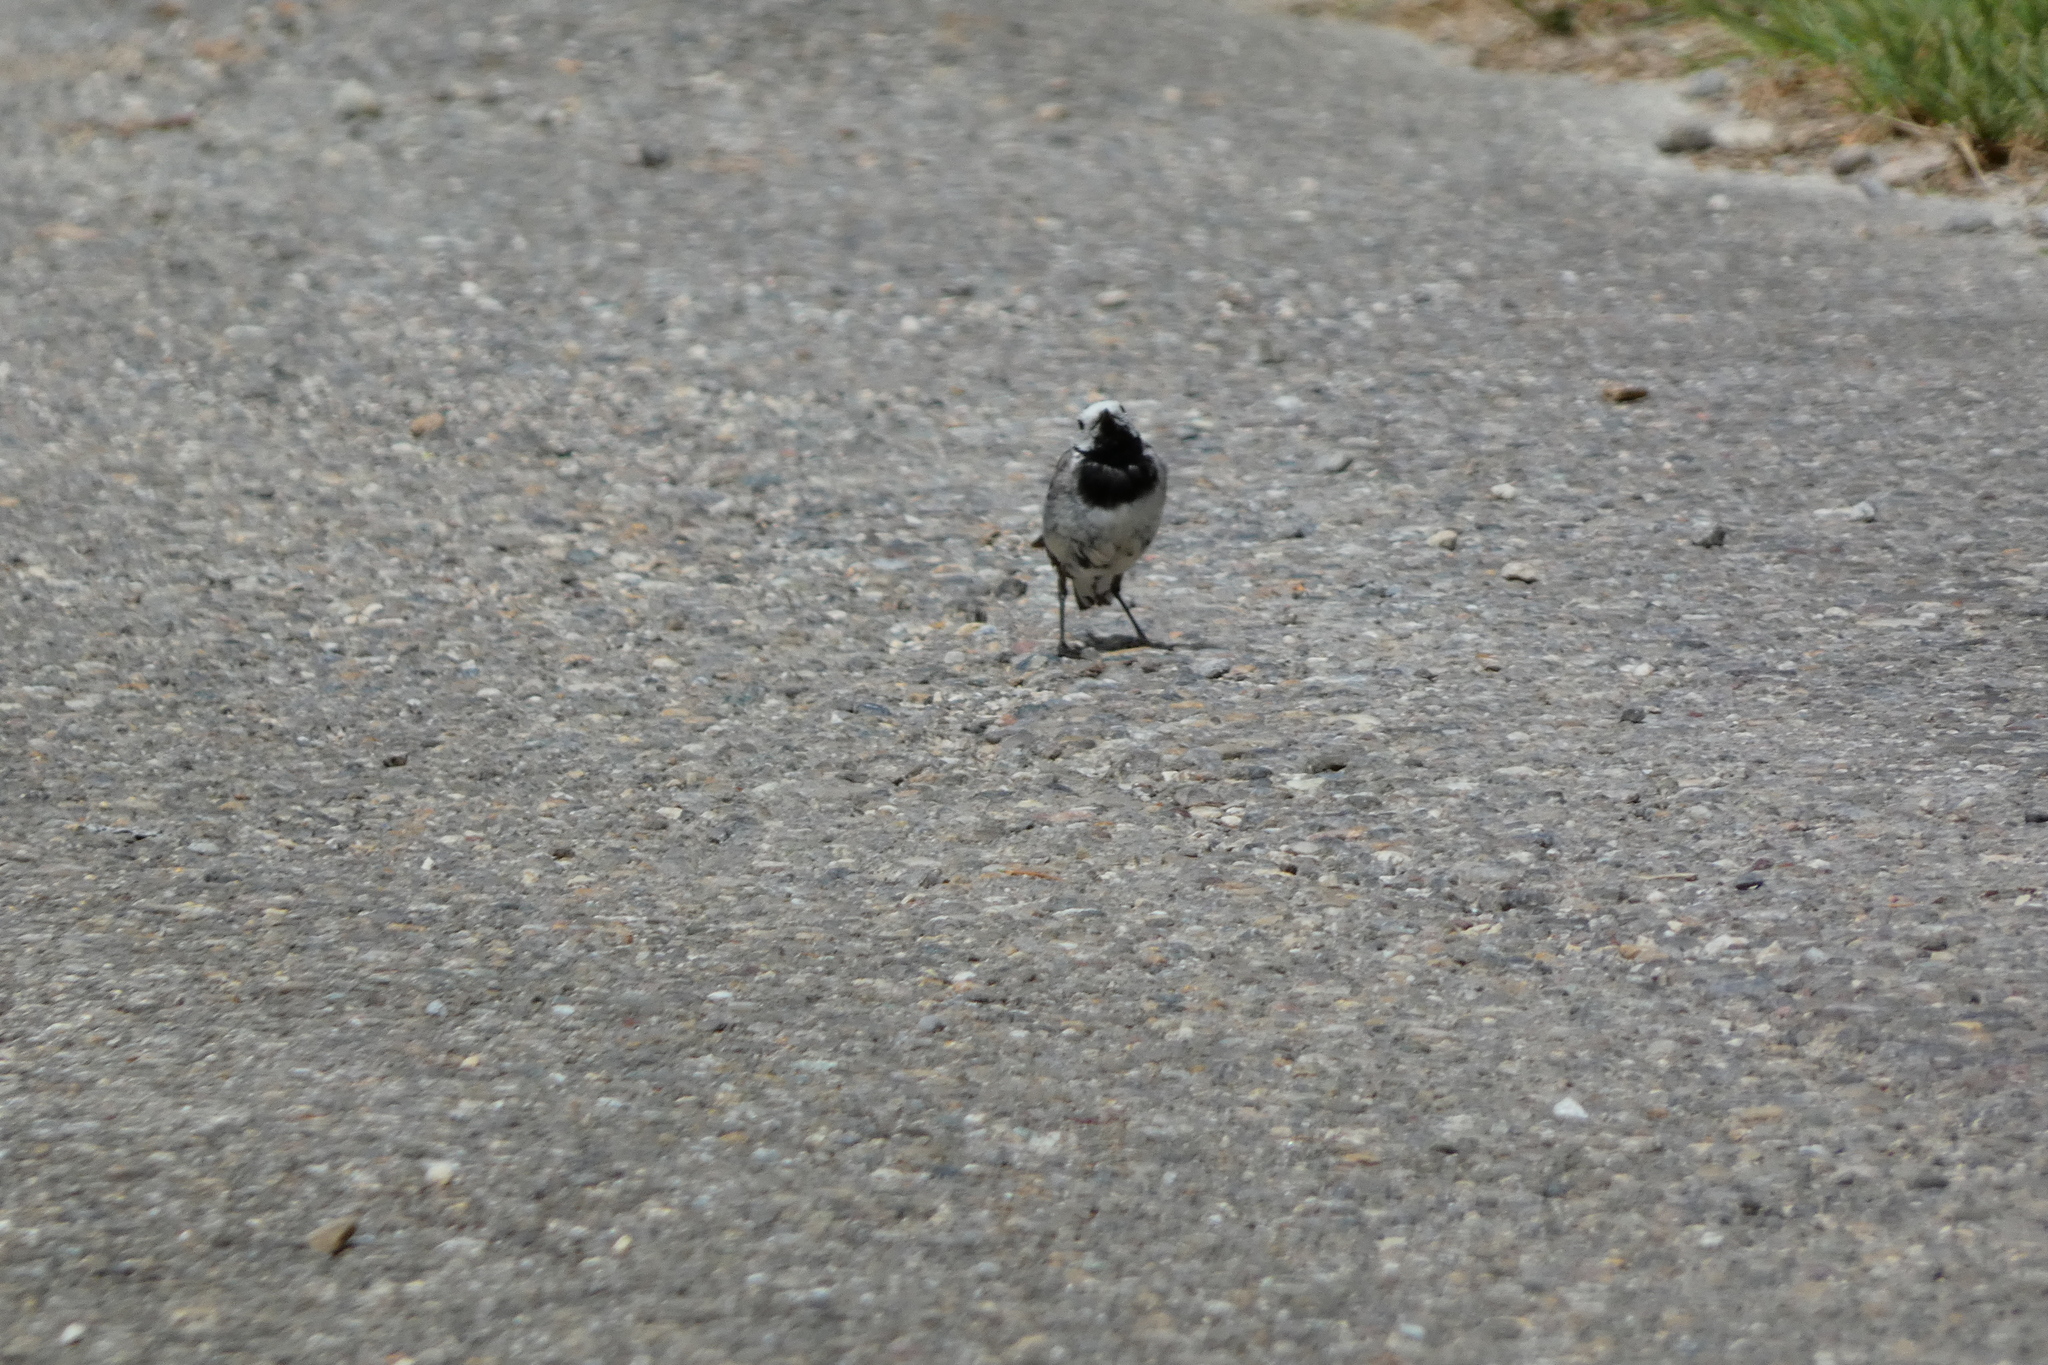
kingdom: Animalia
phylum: Chordata
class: Aves
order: Passeriformes
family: Motacillidae
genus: Motacilla
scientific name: Motacilla alba
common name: White wagtail
